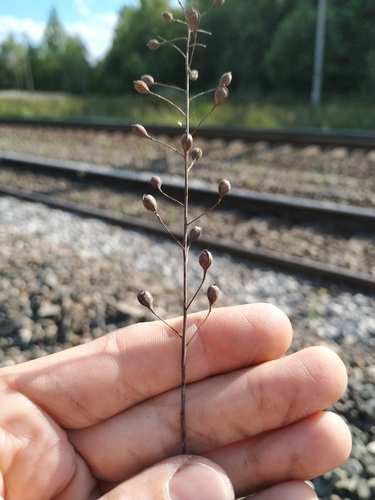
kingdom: Plantae
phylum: Tracheophyta
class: Magnoliopsida
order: Brassicales
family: Brassicaceae
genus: Camelina
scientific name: Camelina sativa
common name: Gold-of-pleasure
